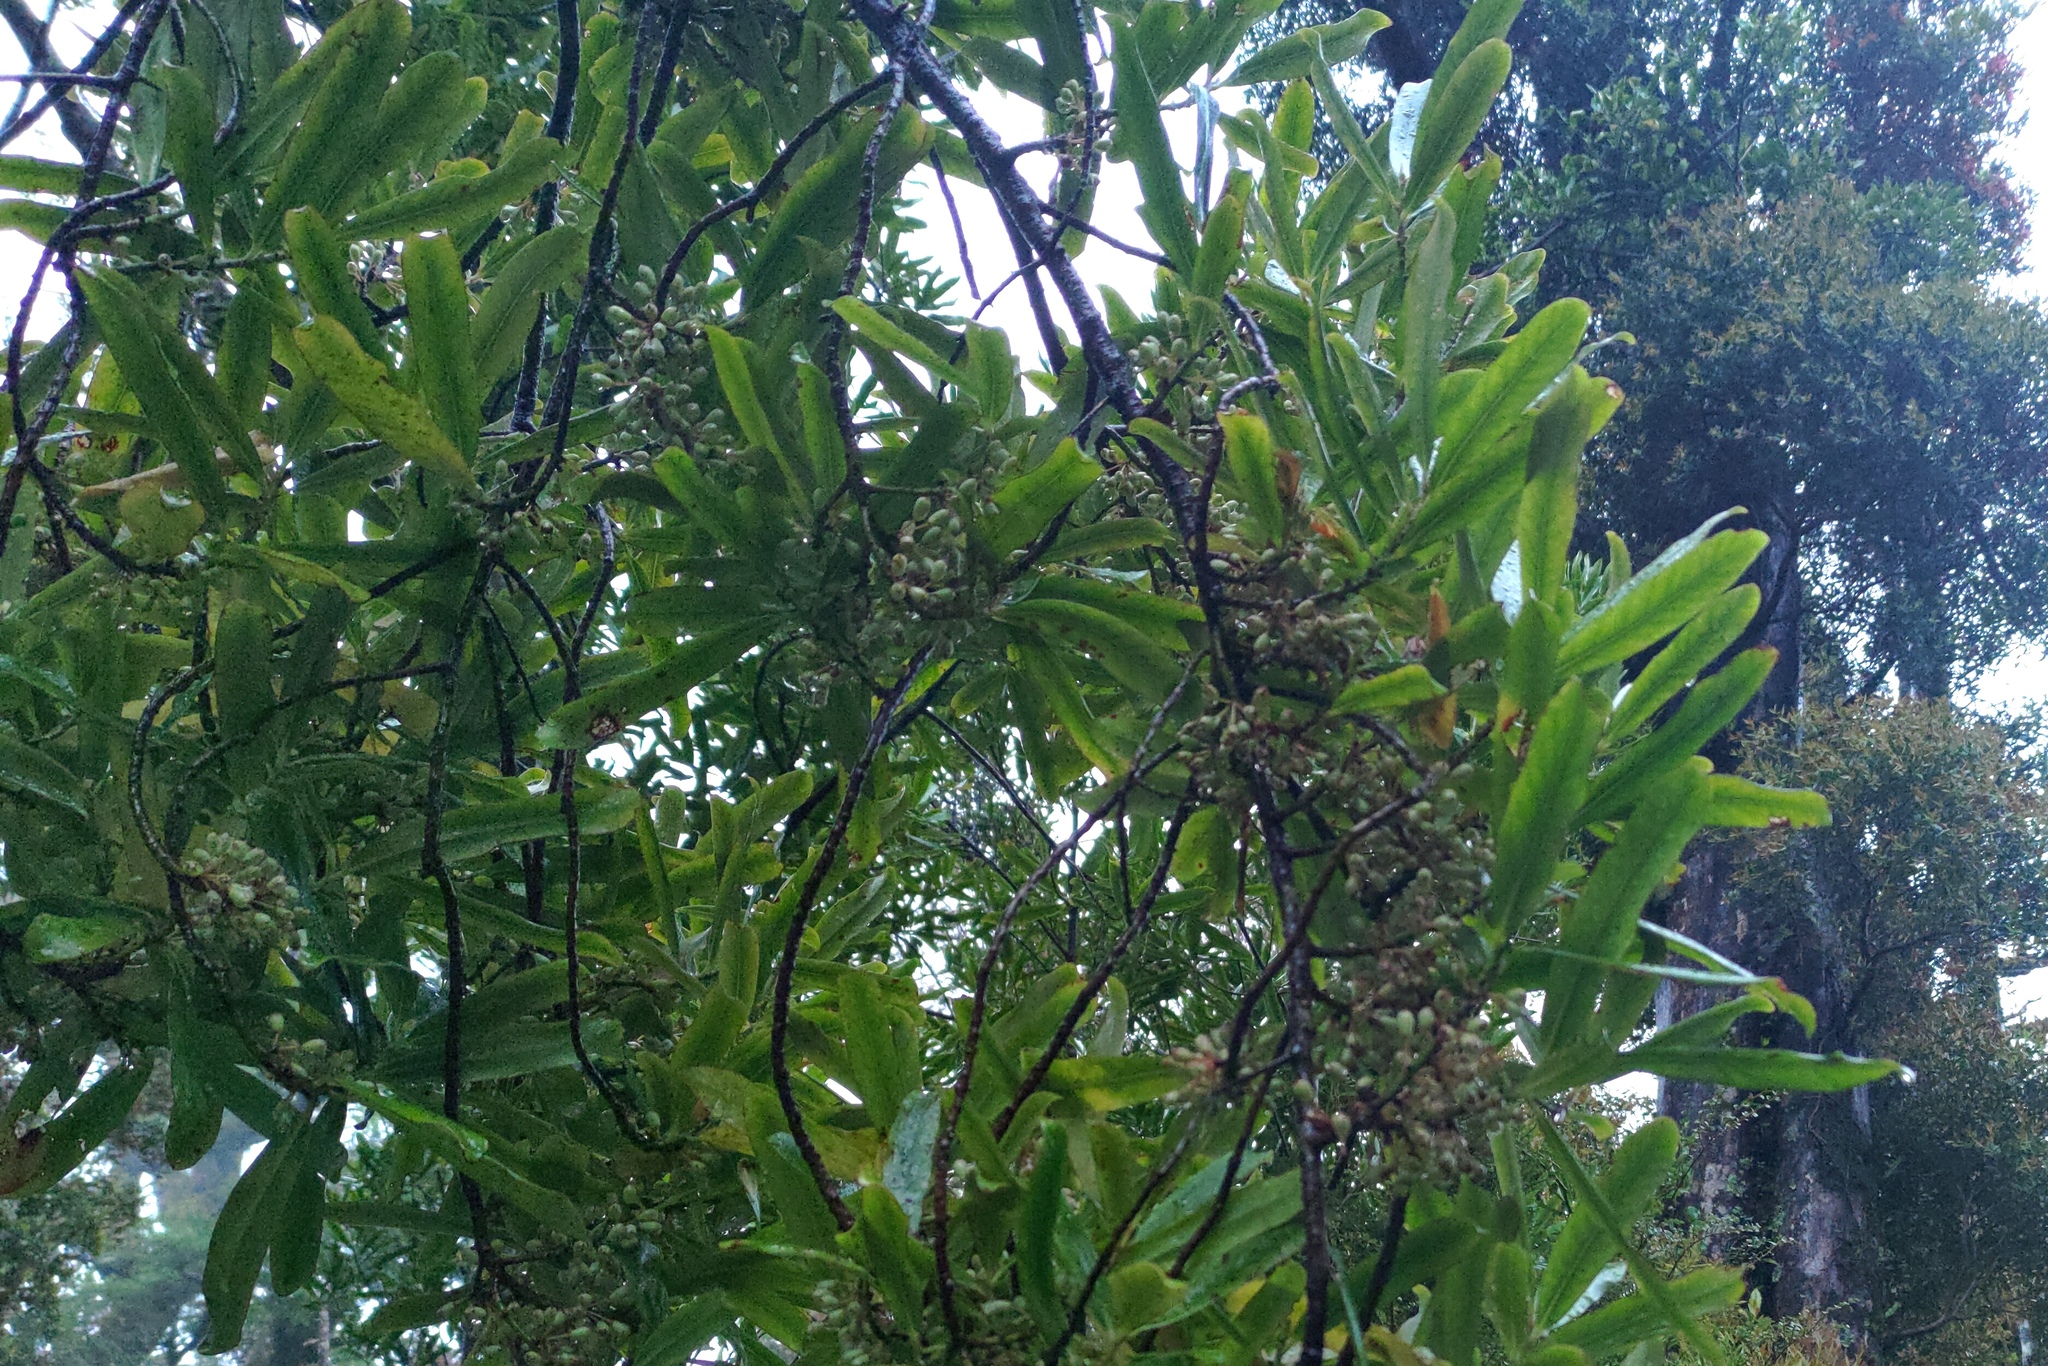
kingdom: Plantae
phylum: Tracheophyta
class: Magnoliopsida
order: Ericales
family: Primulaceae
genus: Myrsine
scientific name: Myrsine salicina
